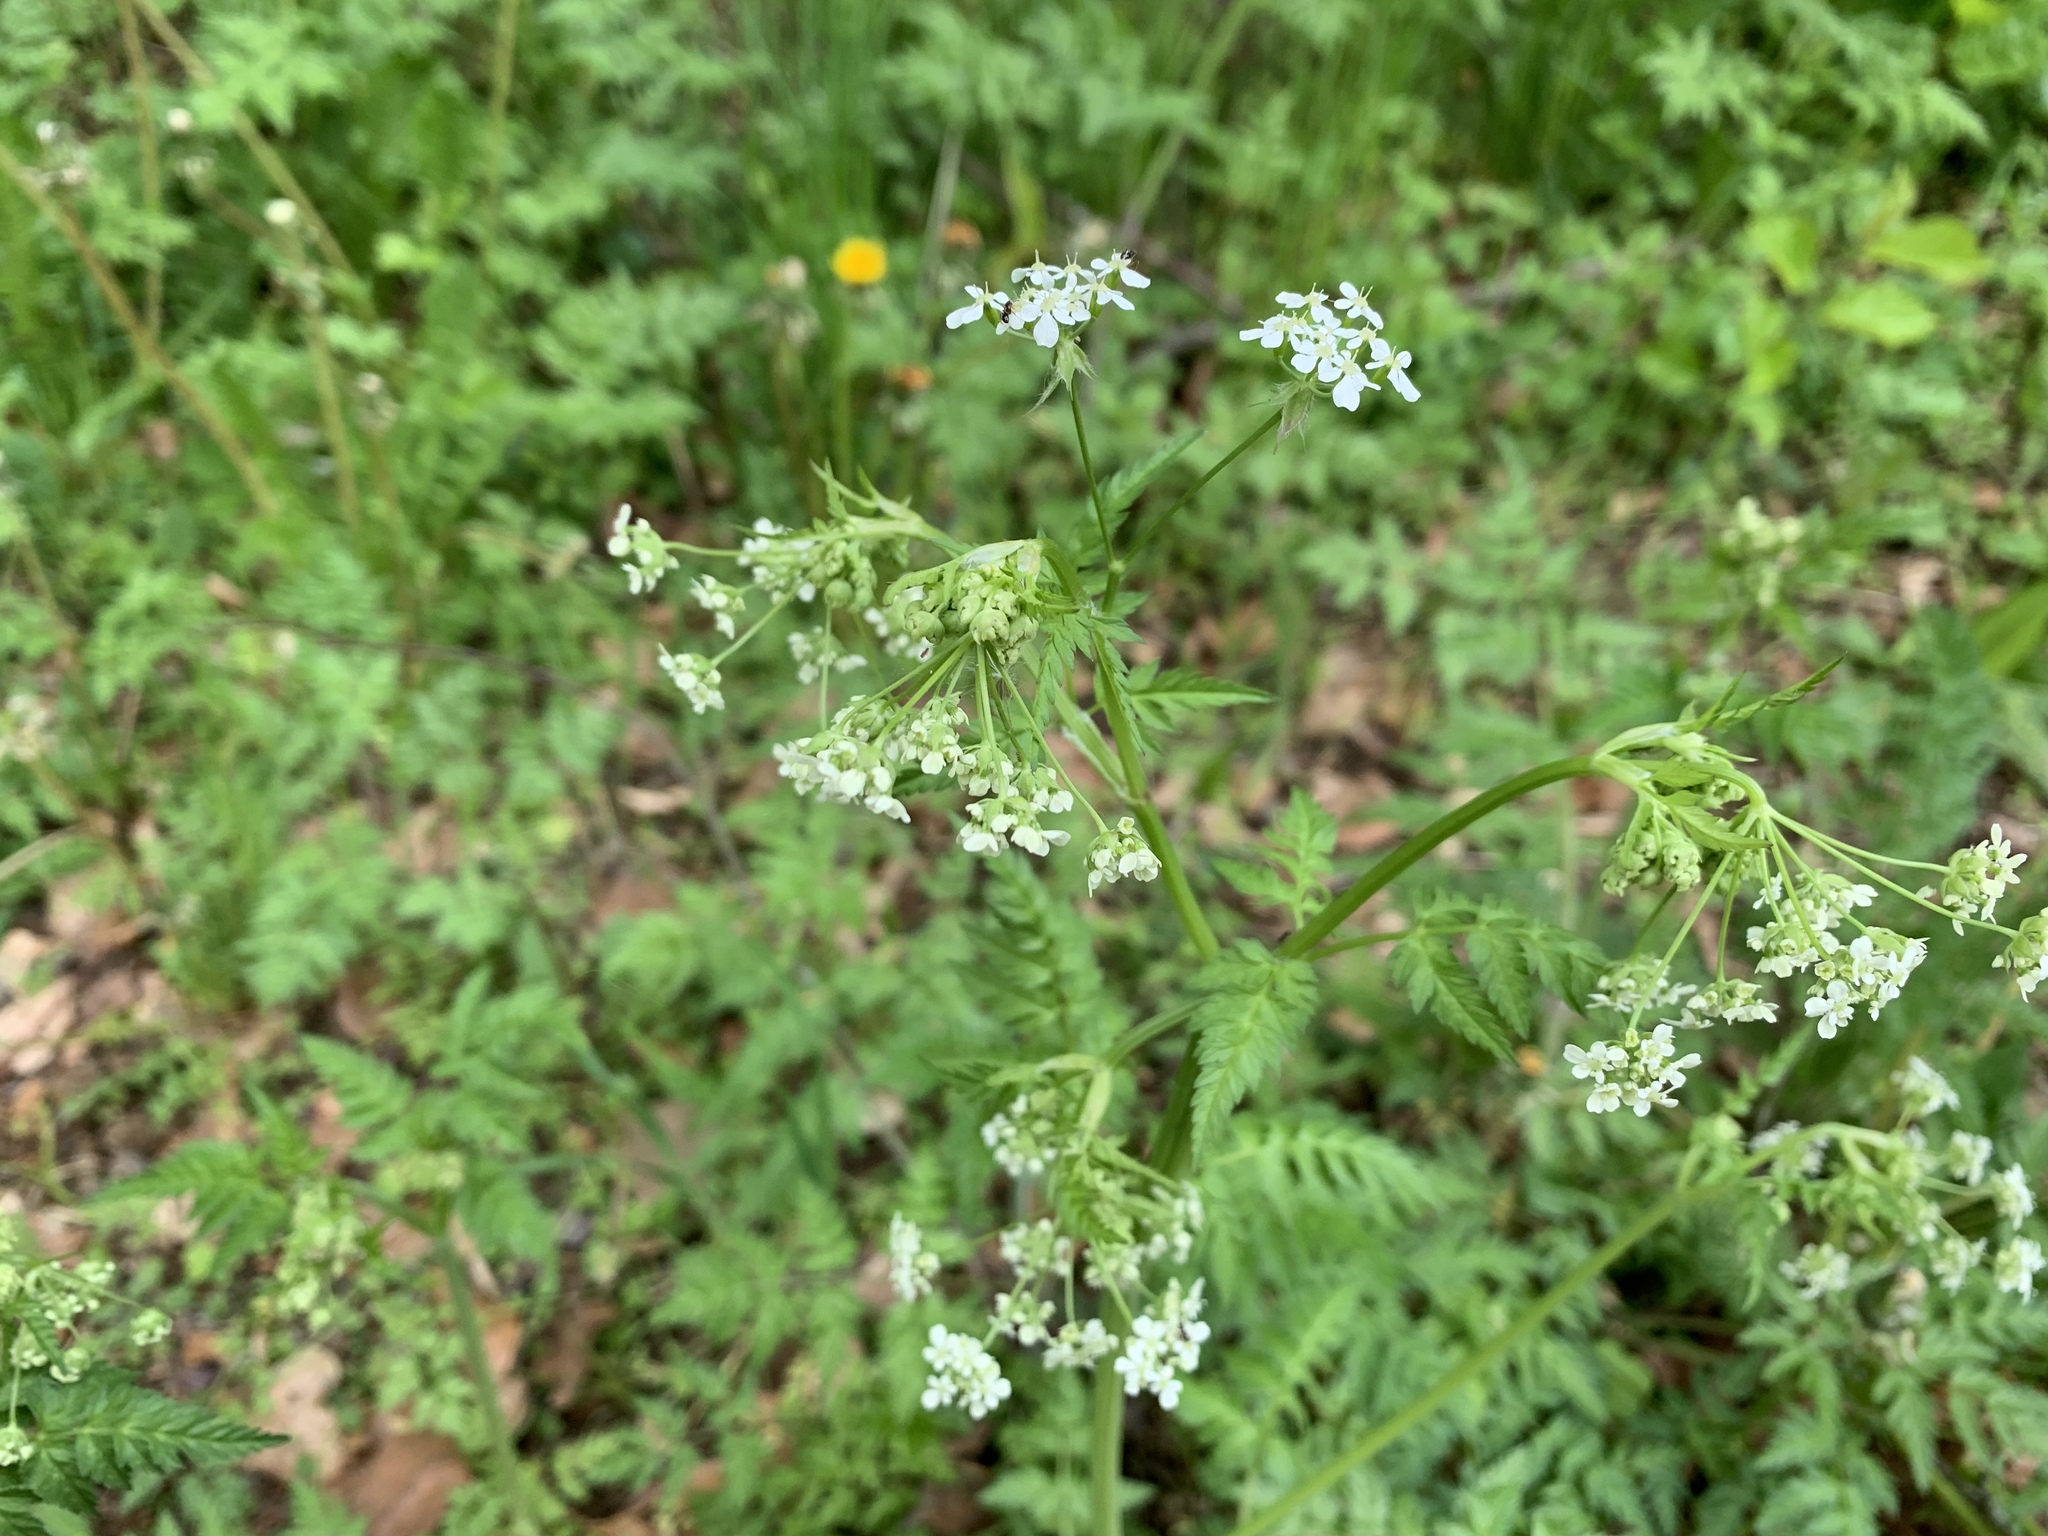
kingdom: Plantae
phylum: Tracheophyta
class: Magnoliopsida
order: Apiales
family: Apiaceae
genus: Anthriscus
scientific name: Anthriscus sylvestris
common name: Cow parsley
